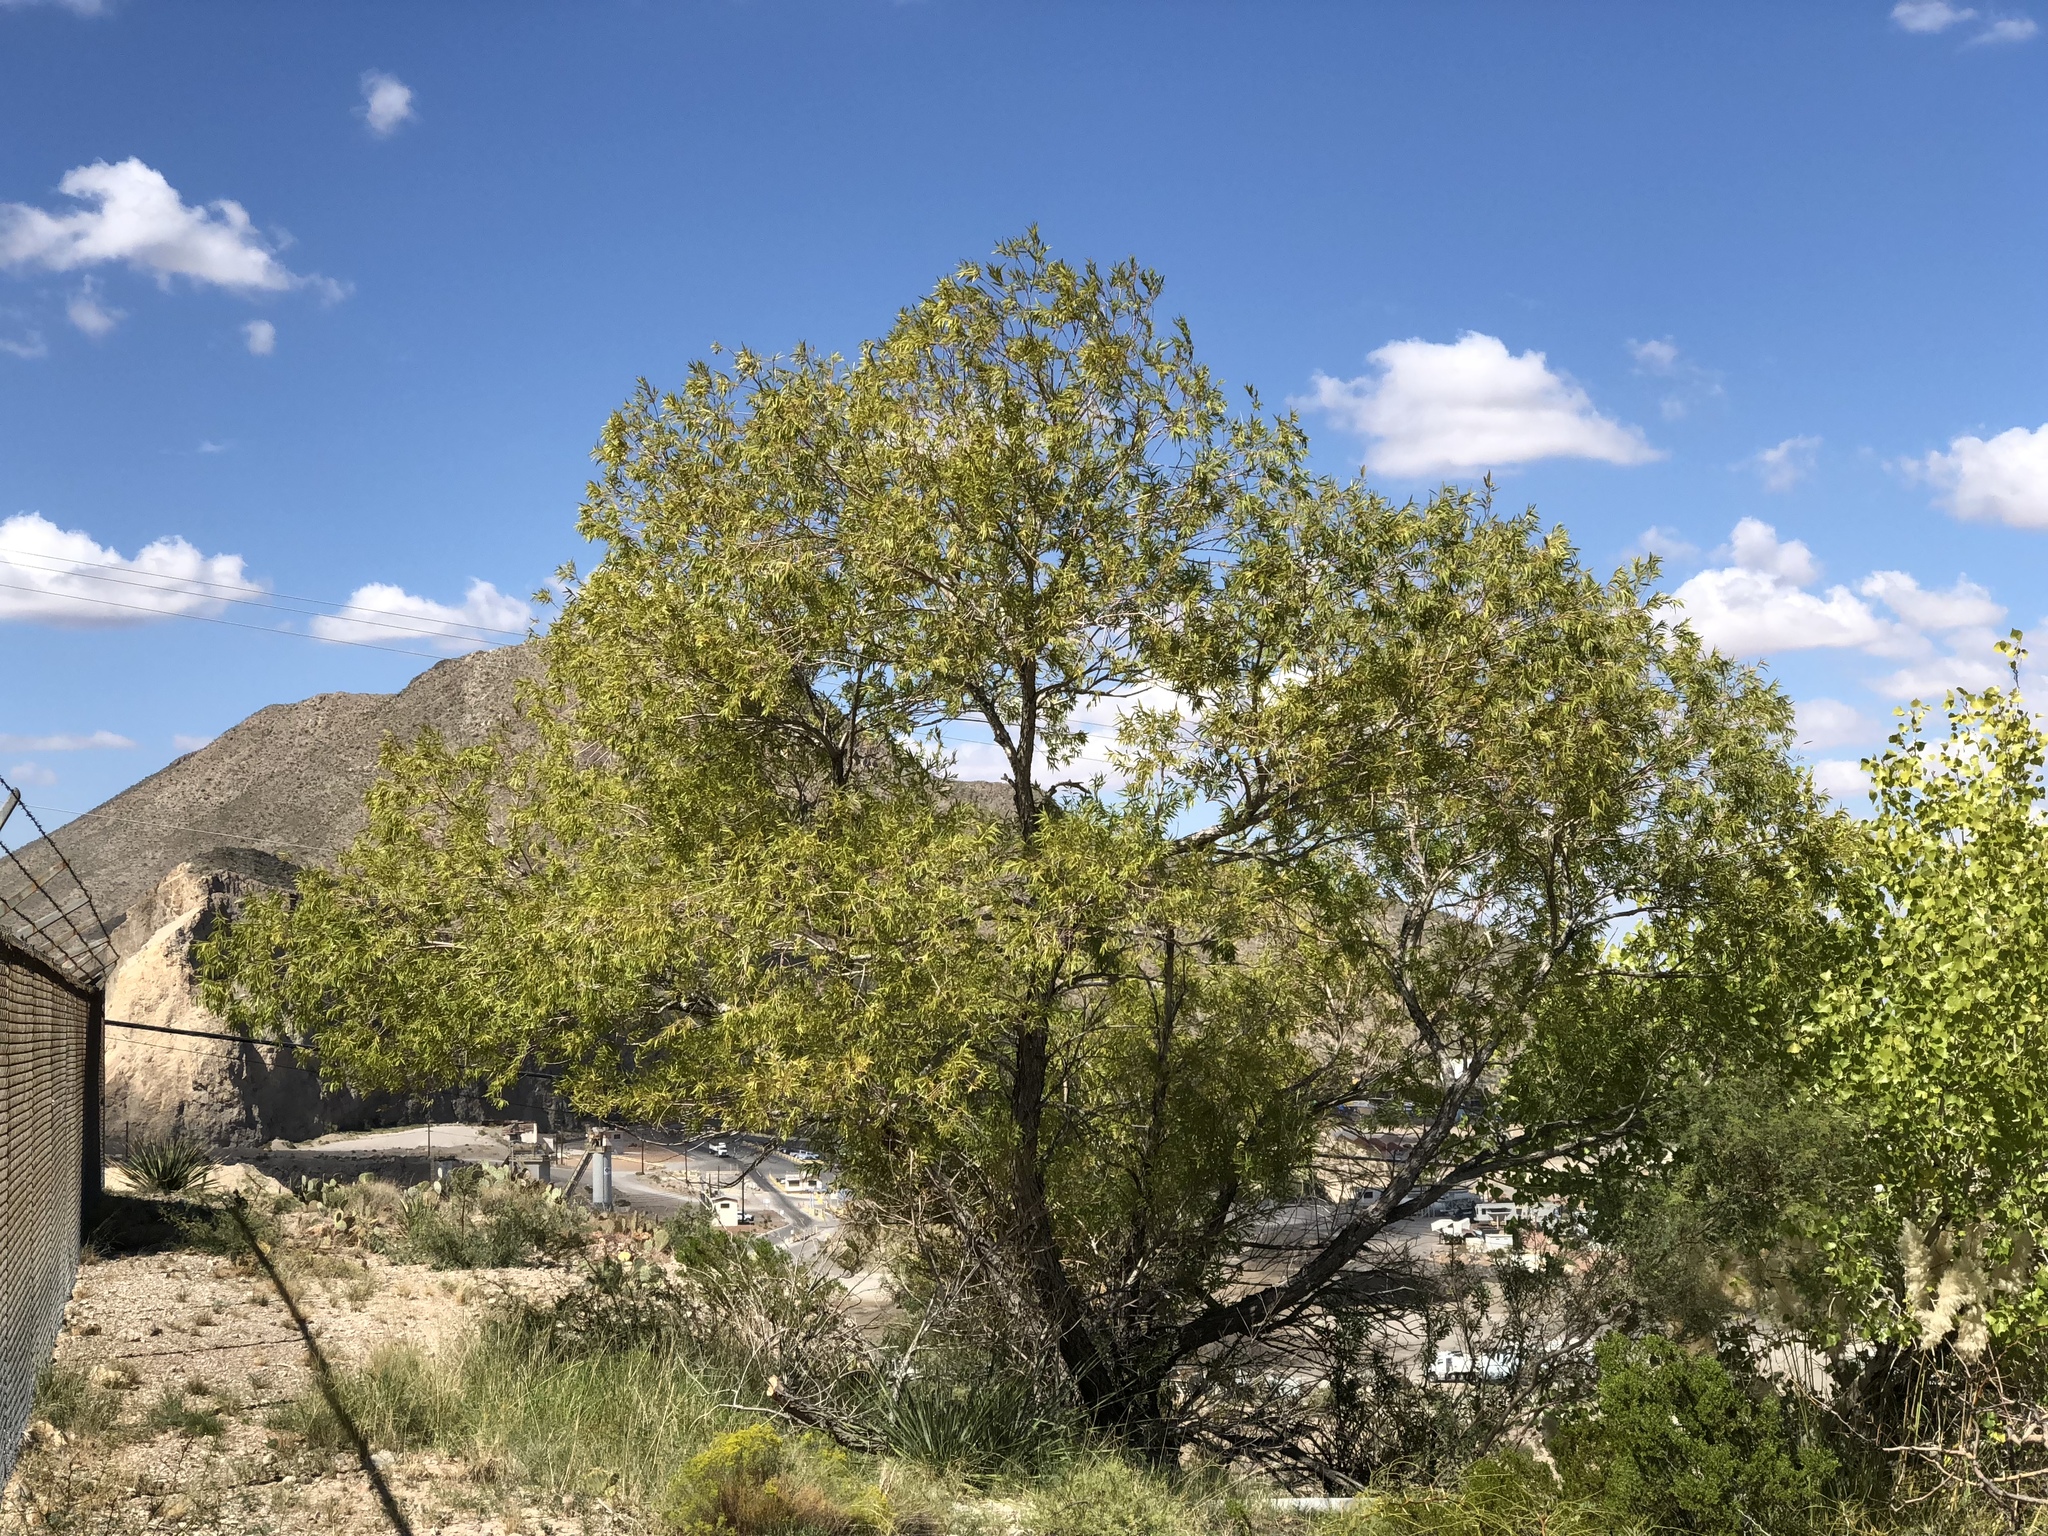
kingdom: Plantae
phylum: Tracheophyta
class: Magnoliopsida
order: Lamiales
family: Bignoniaceae
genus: Chilopsis
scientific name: Chilopsis linearis
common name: Desert-willow
